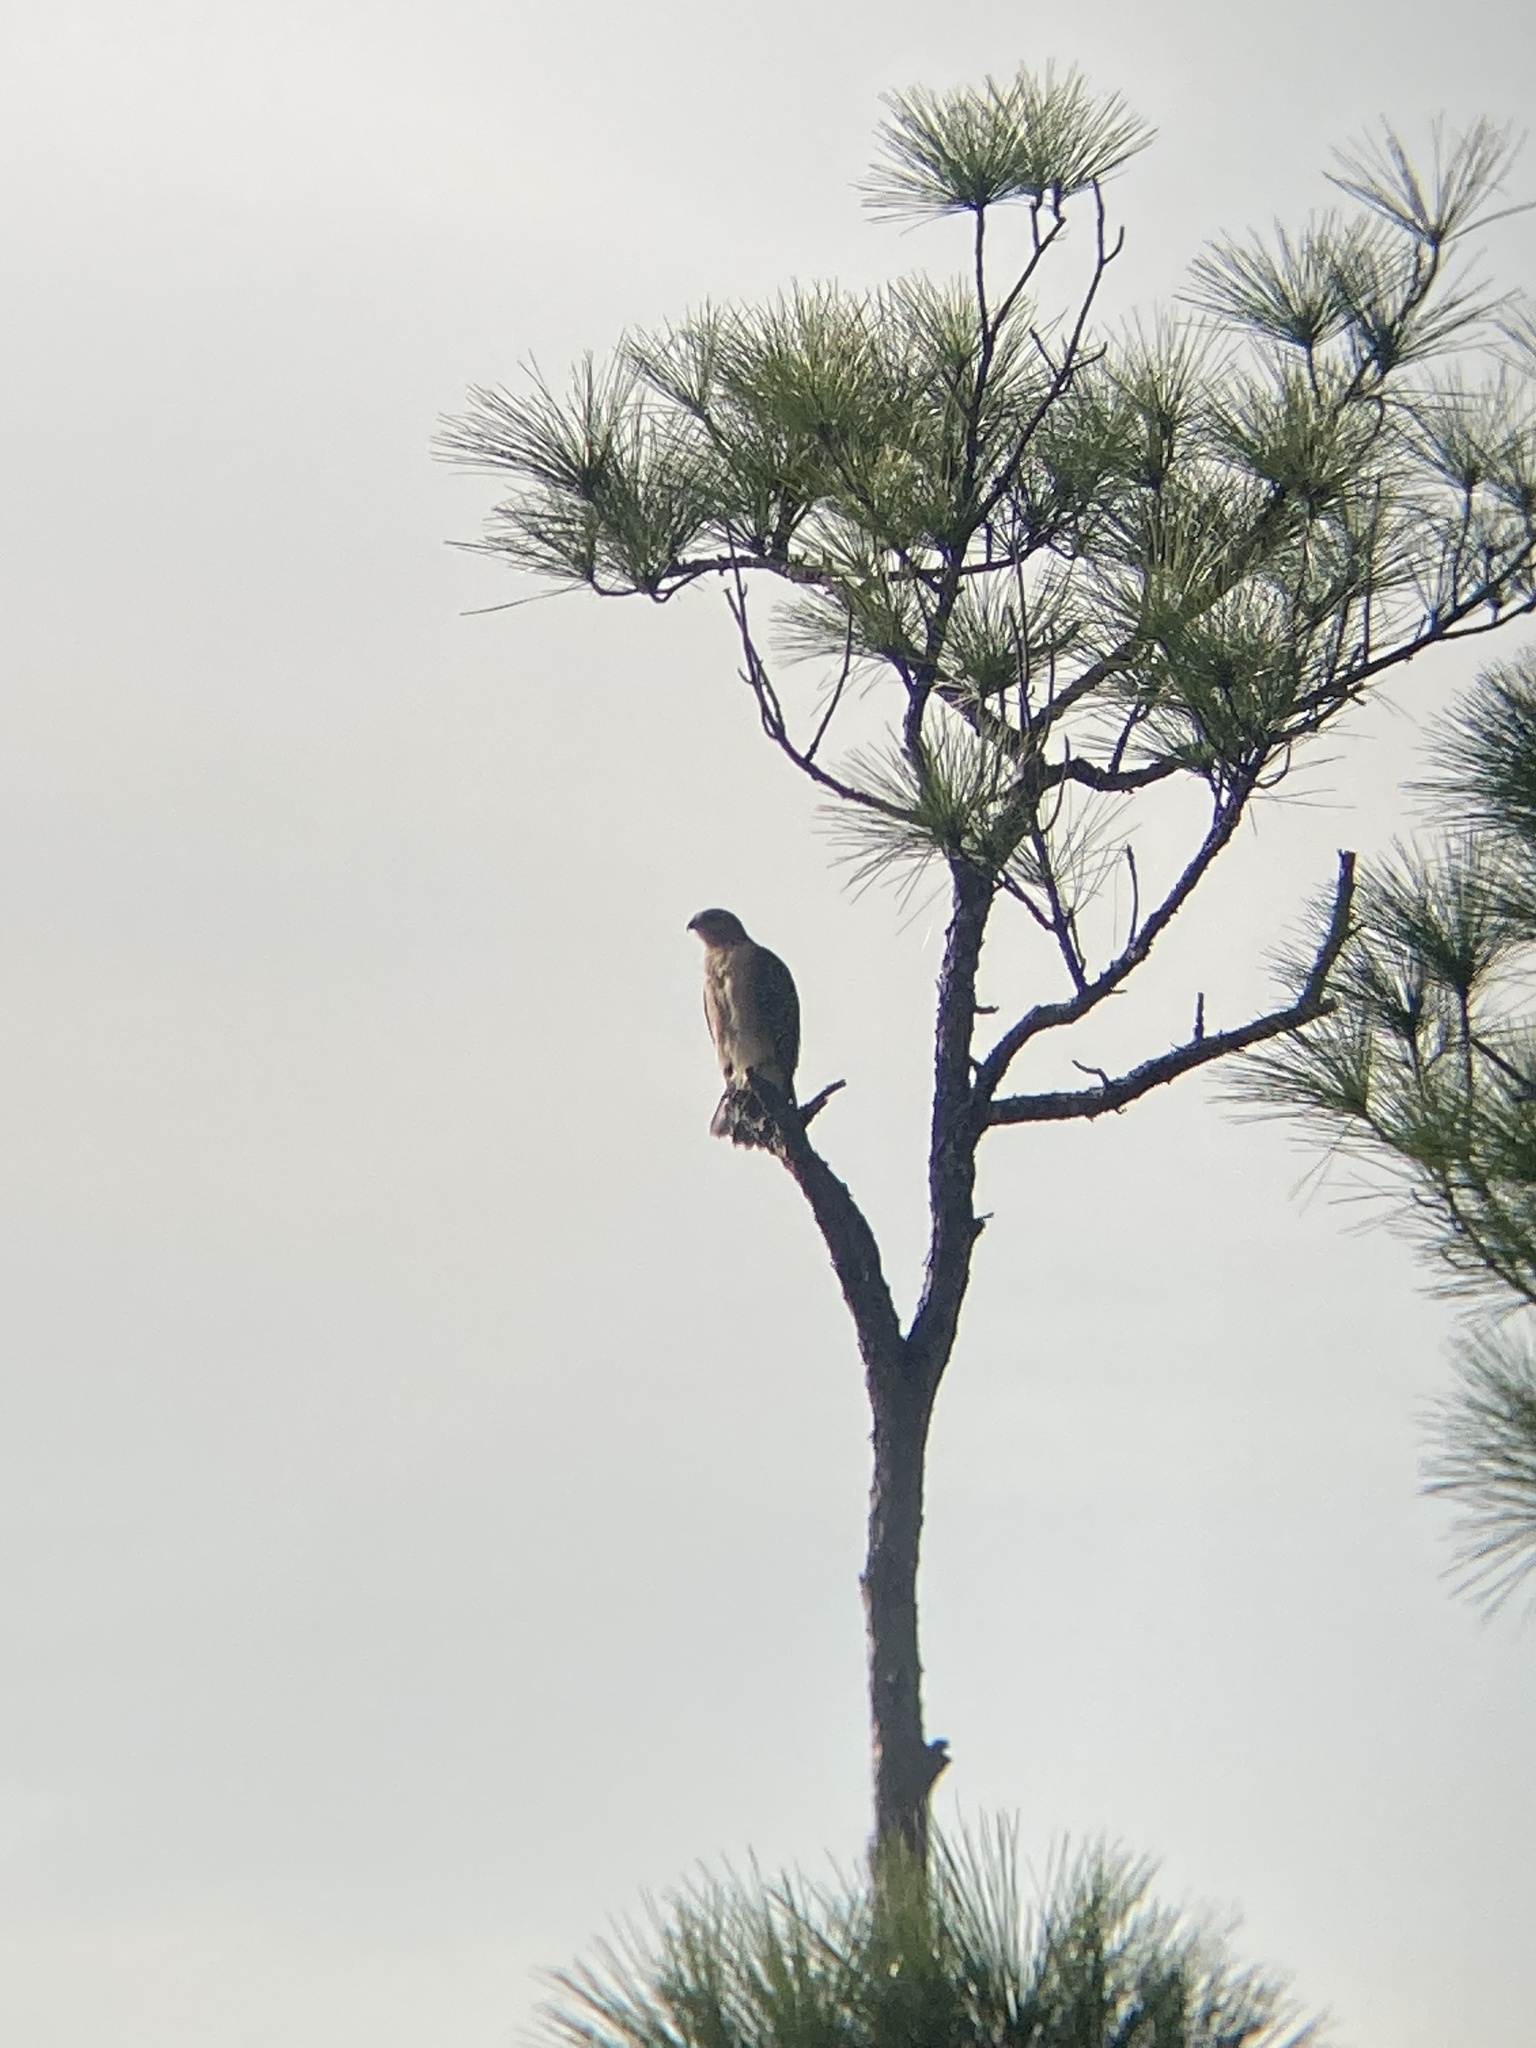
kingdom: Animalia
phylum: Chordata
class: Aves
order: Accipitriformes
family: Accipitridae
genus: Buteo
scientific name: Buteo lineatus
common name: Red-shouldered hawk
